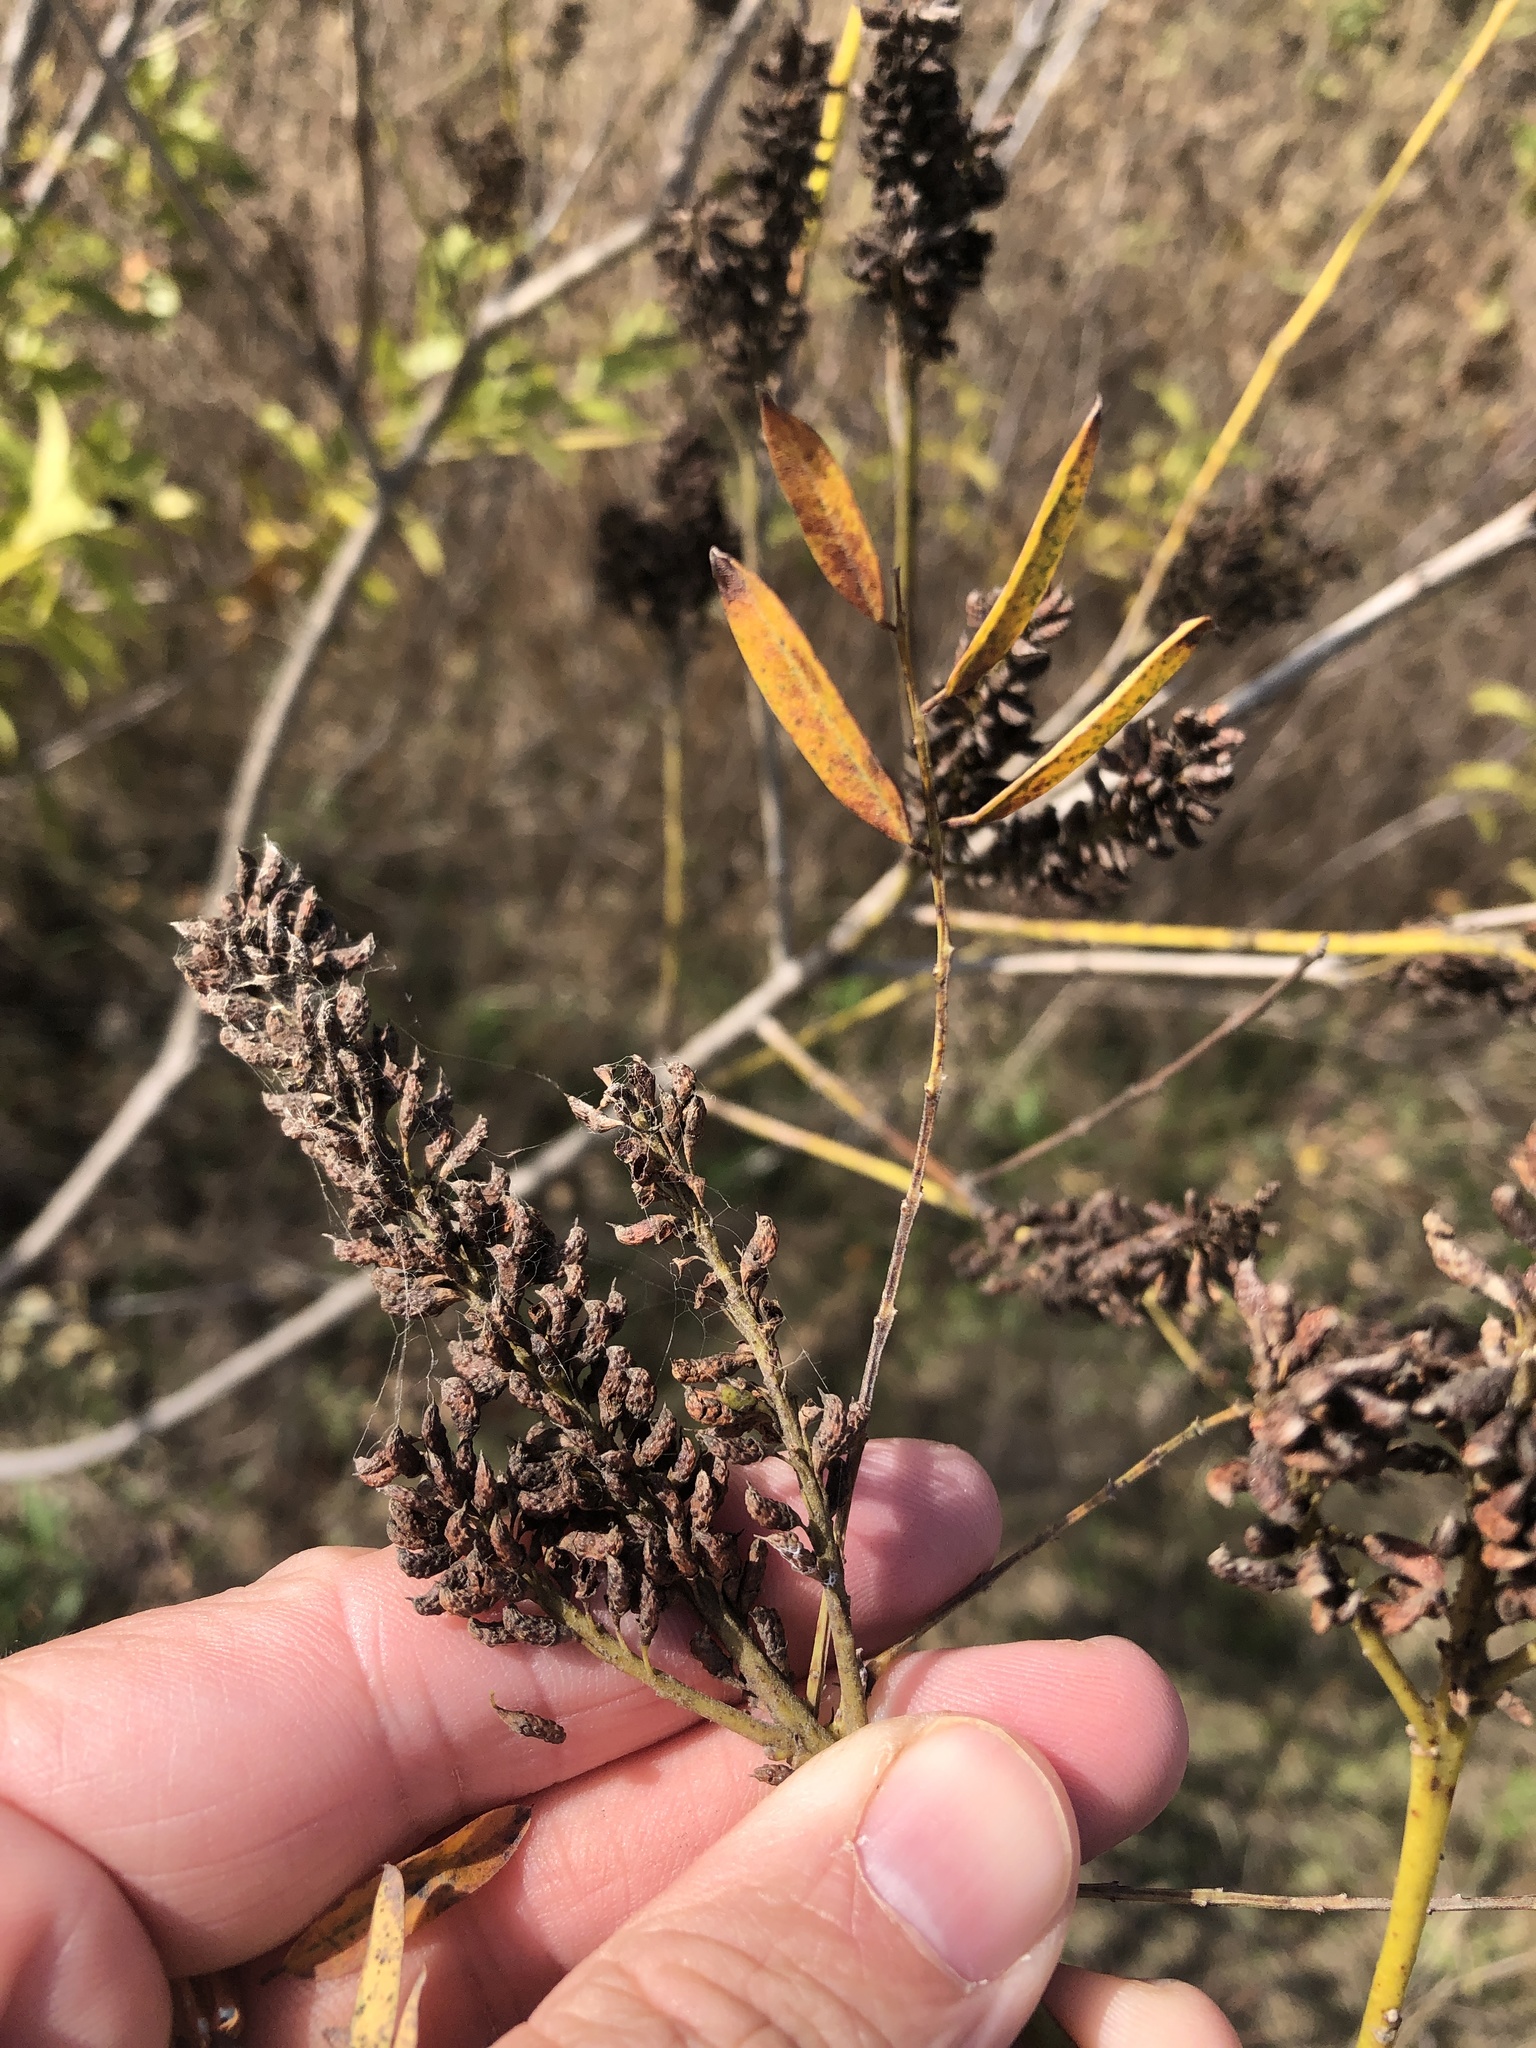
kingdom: Plantae
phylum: Tracheophyta
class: Magnoliopsida
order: Fabales
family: Fabaceae
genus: Amorpha
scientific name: Amorpha fruticosa
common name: False indigo
